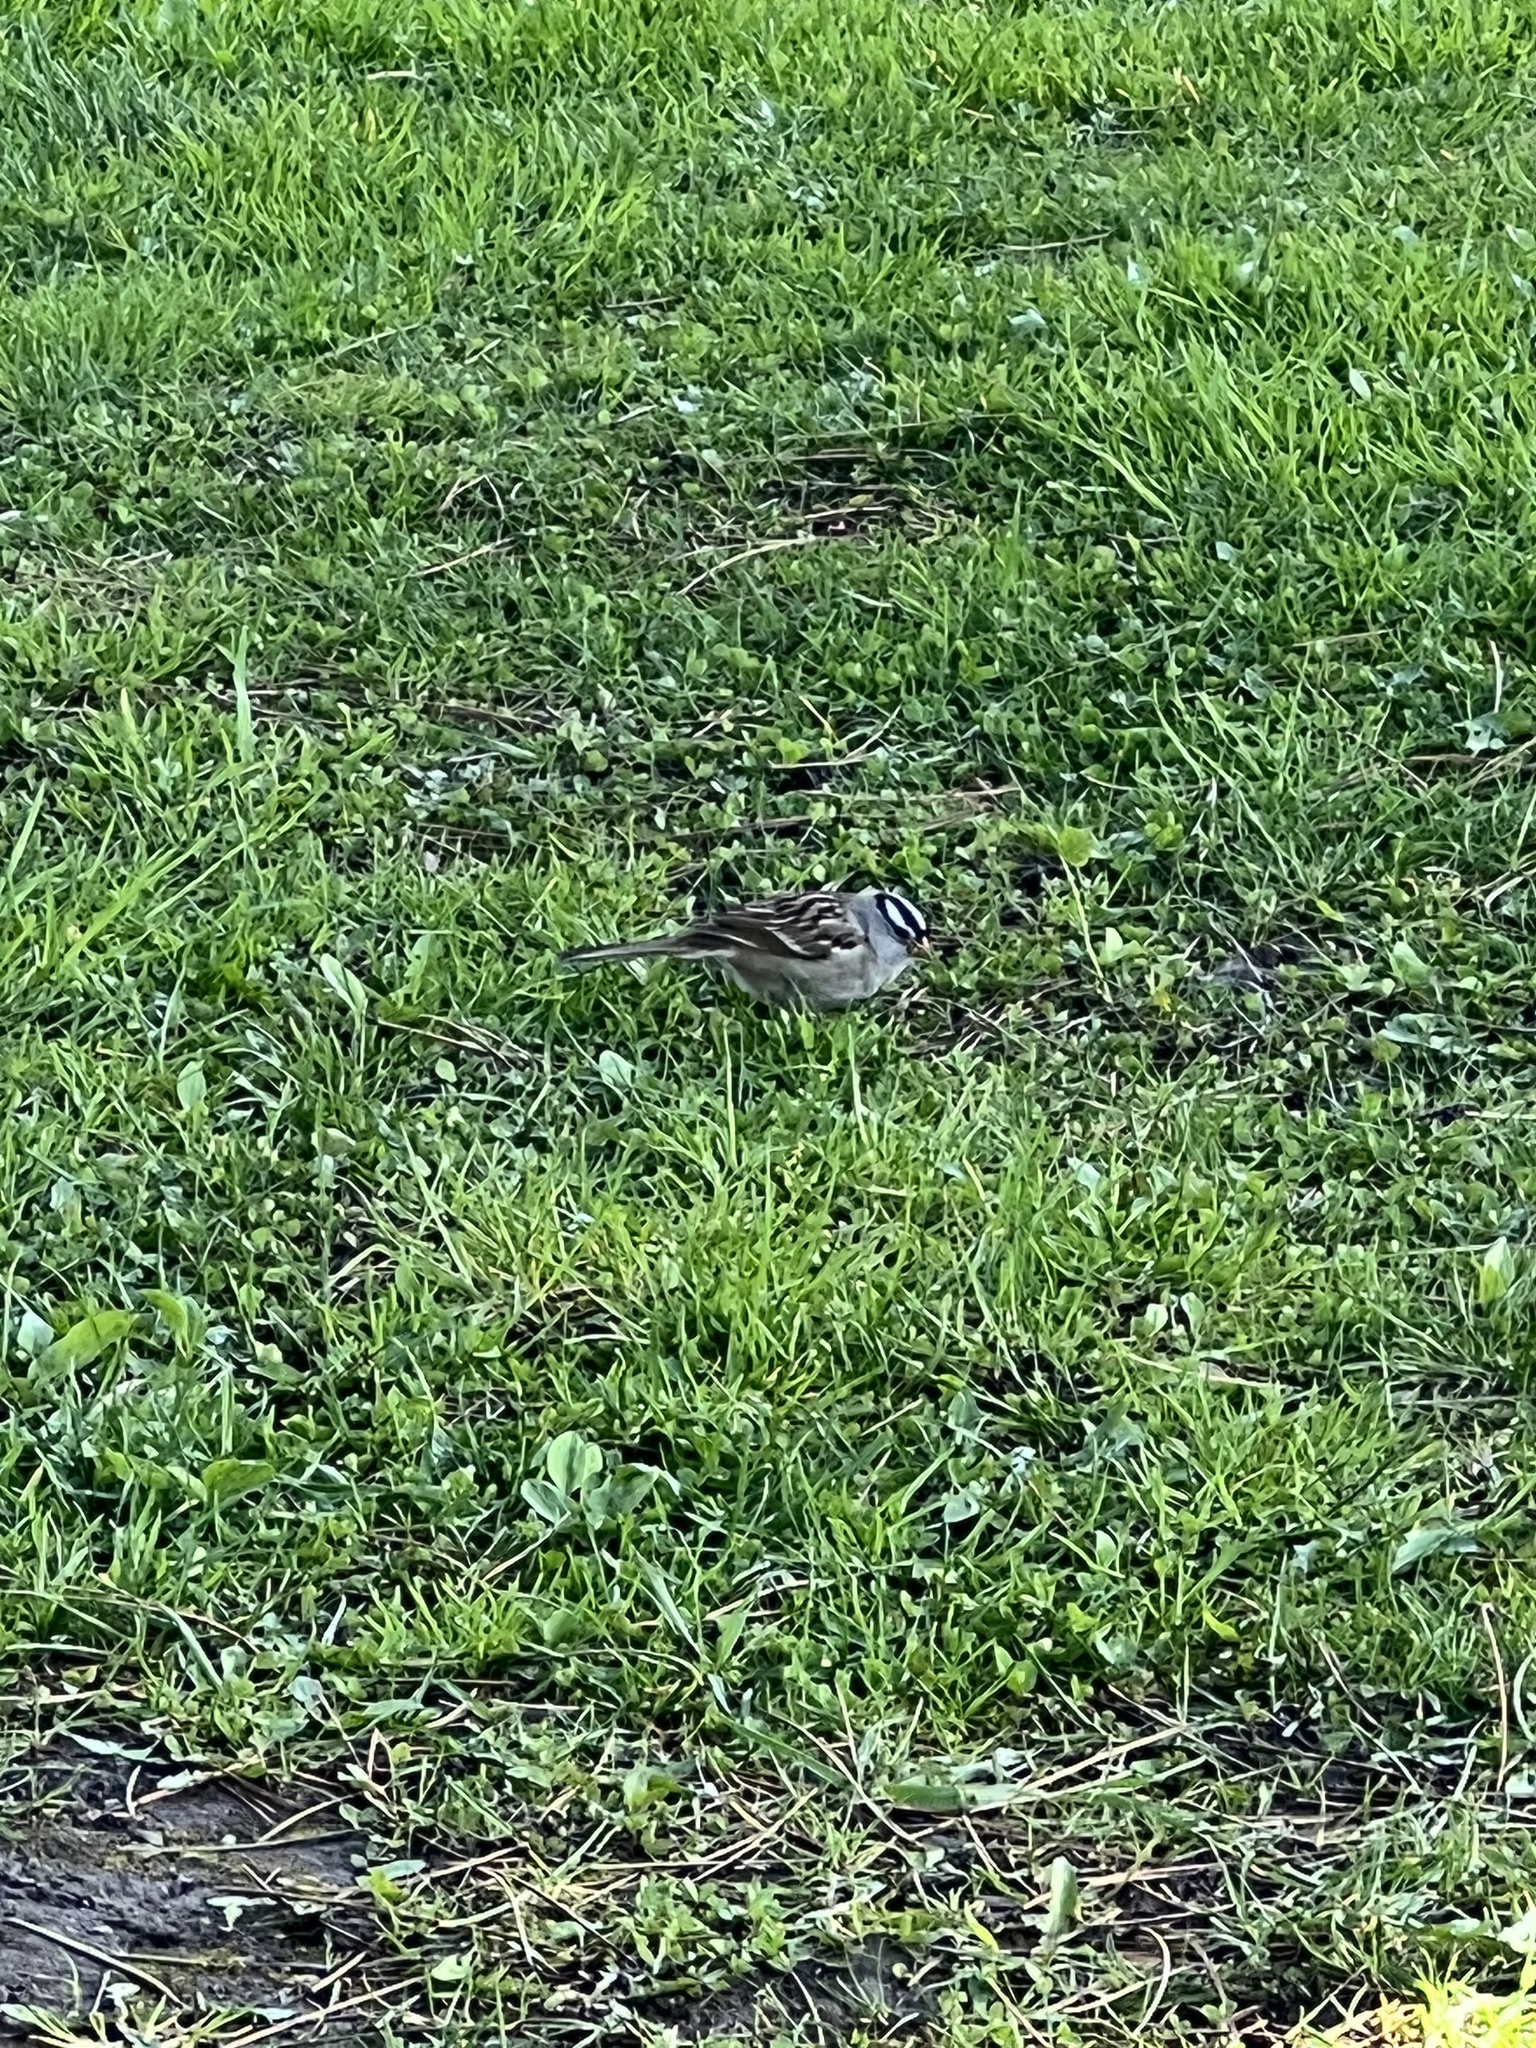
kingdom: Animalia
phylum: Chordata
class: Aves
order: Passeriformes
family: Passerellidae
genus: Zonotrichia
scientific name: Zonotrichia leucophrys
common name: White-crowned sparrow
